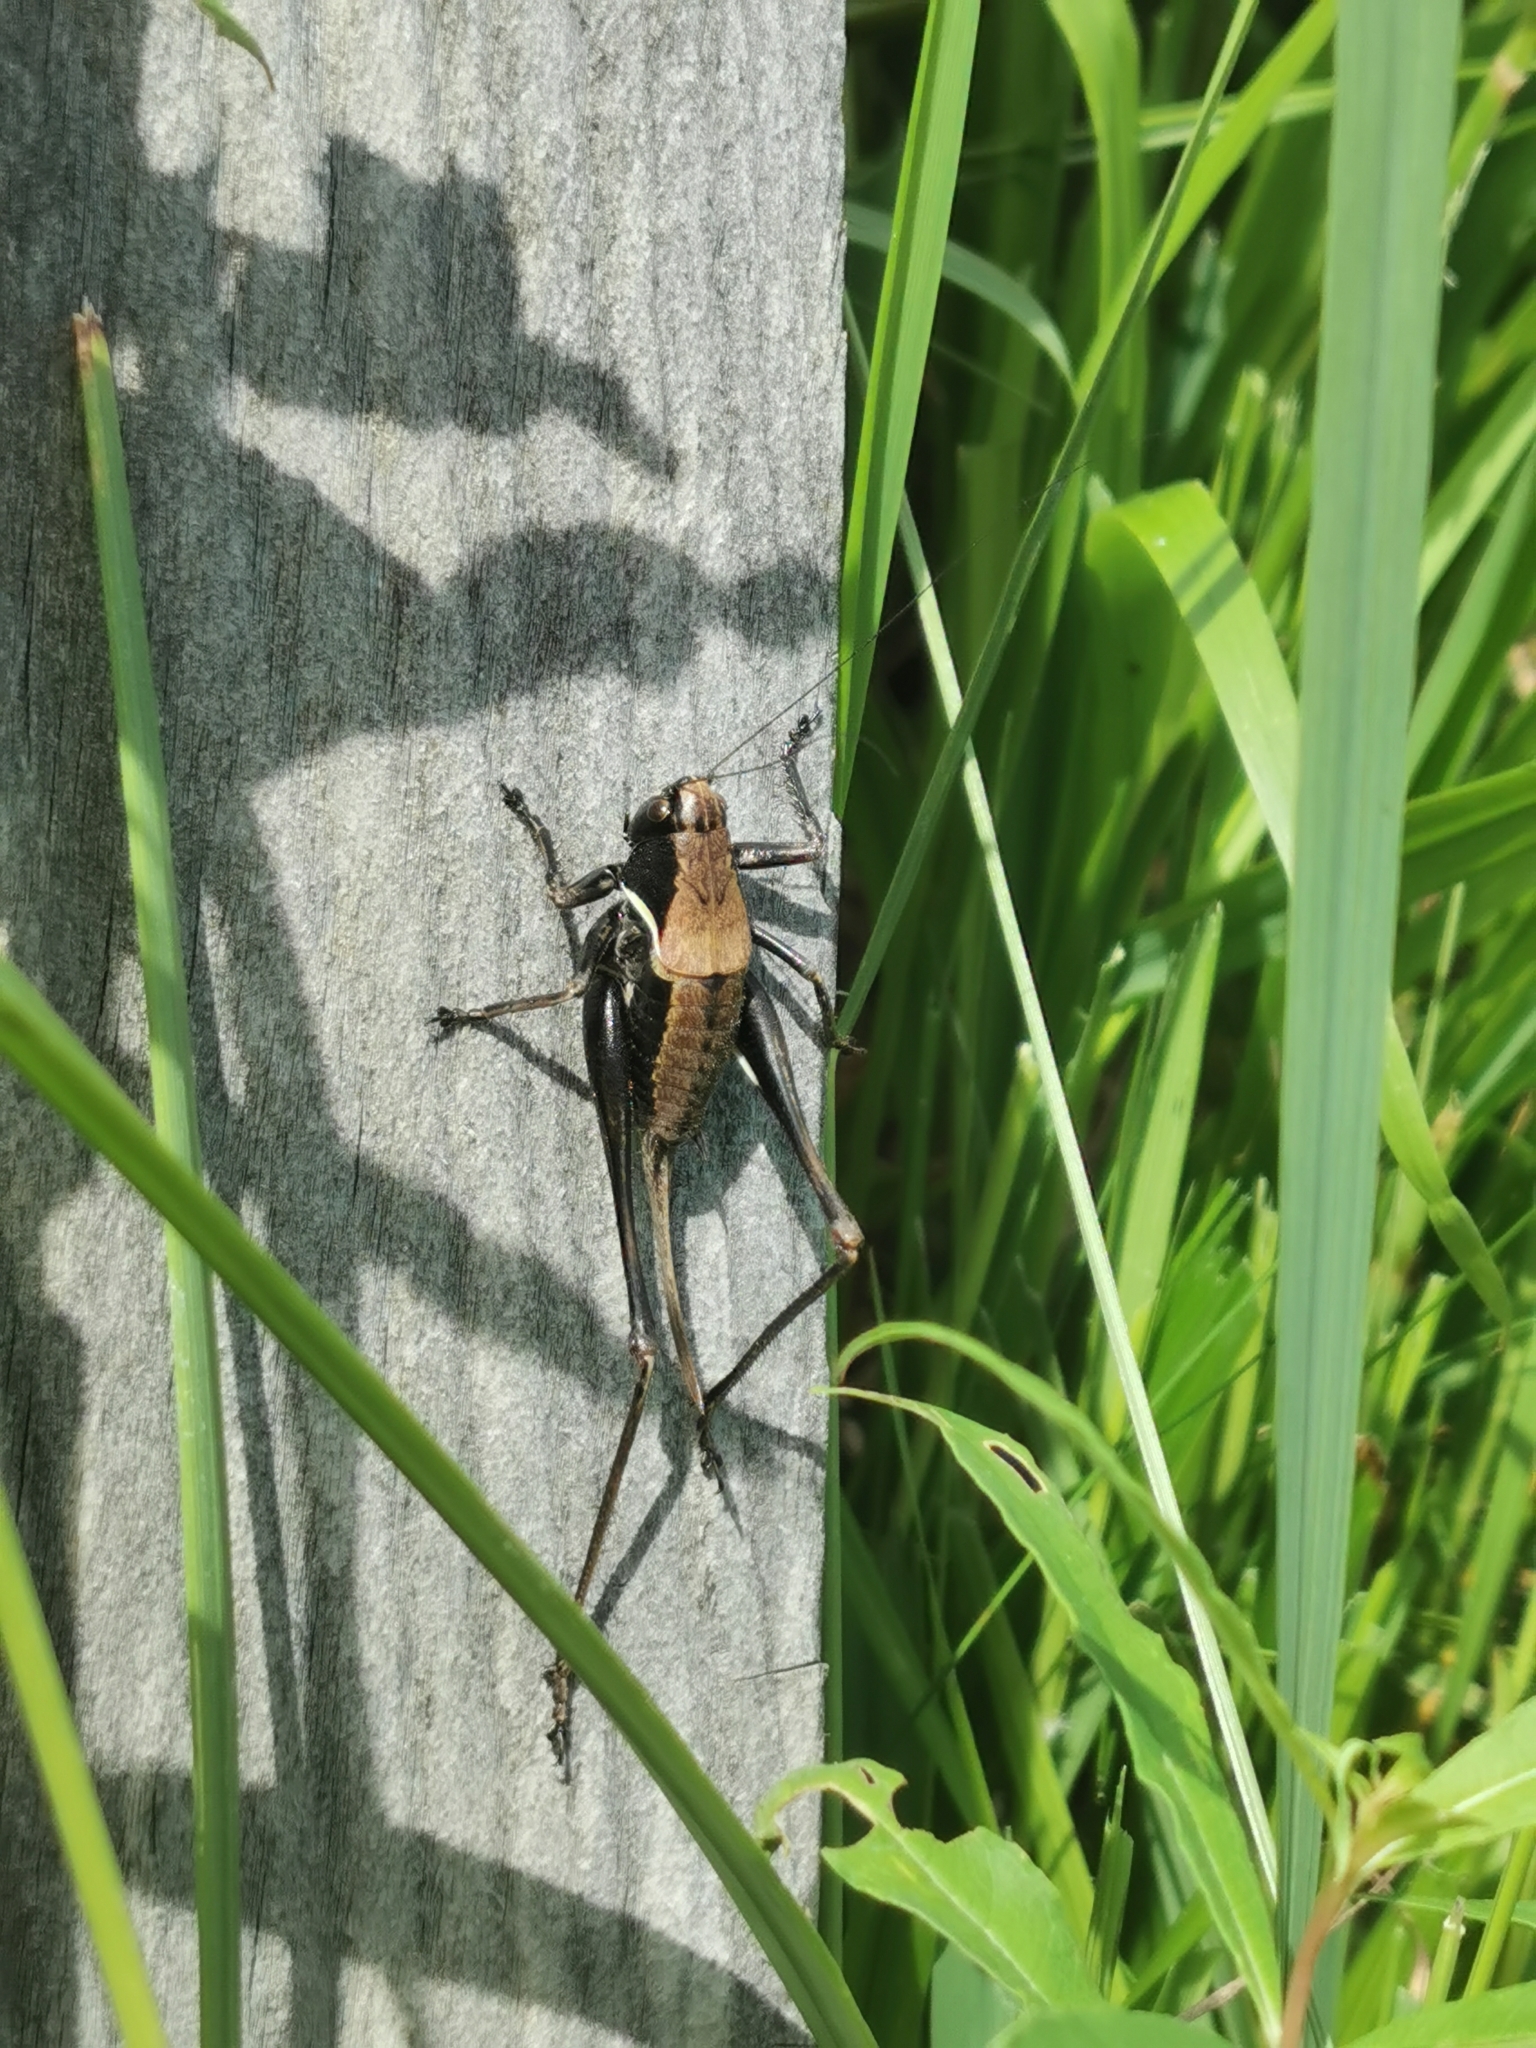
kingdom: Animalia
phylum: Arthropoda
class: Insecta
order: Orthoptera
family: Tettigoniidae
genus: Pholidoptera
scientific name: Pholidoptera aptera
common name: Alpine dark bush-cricket
